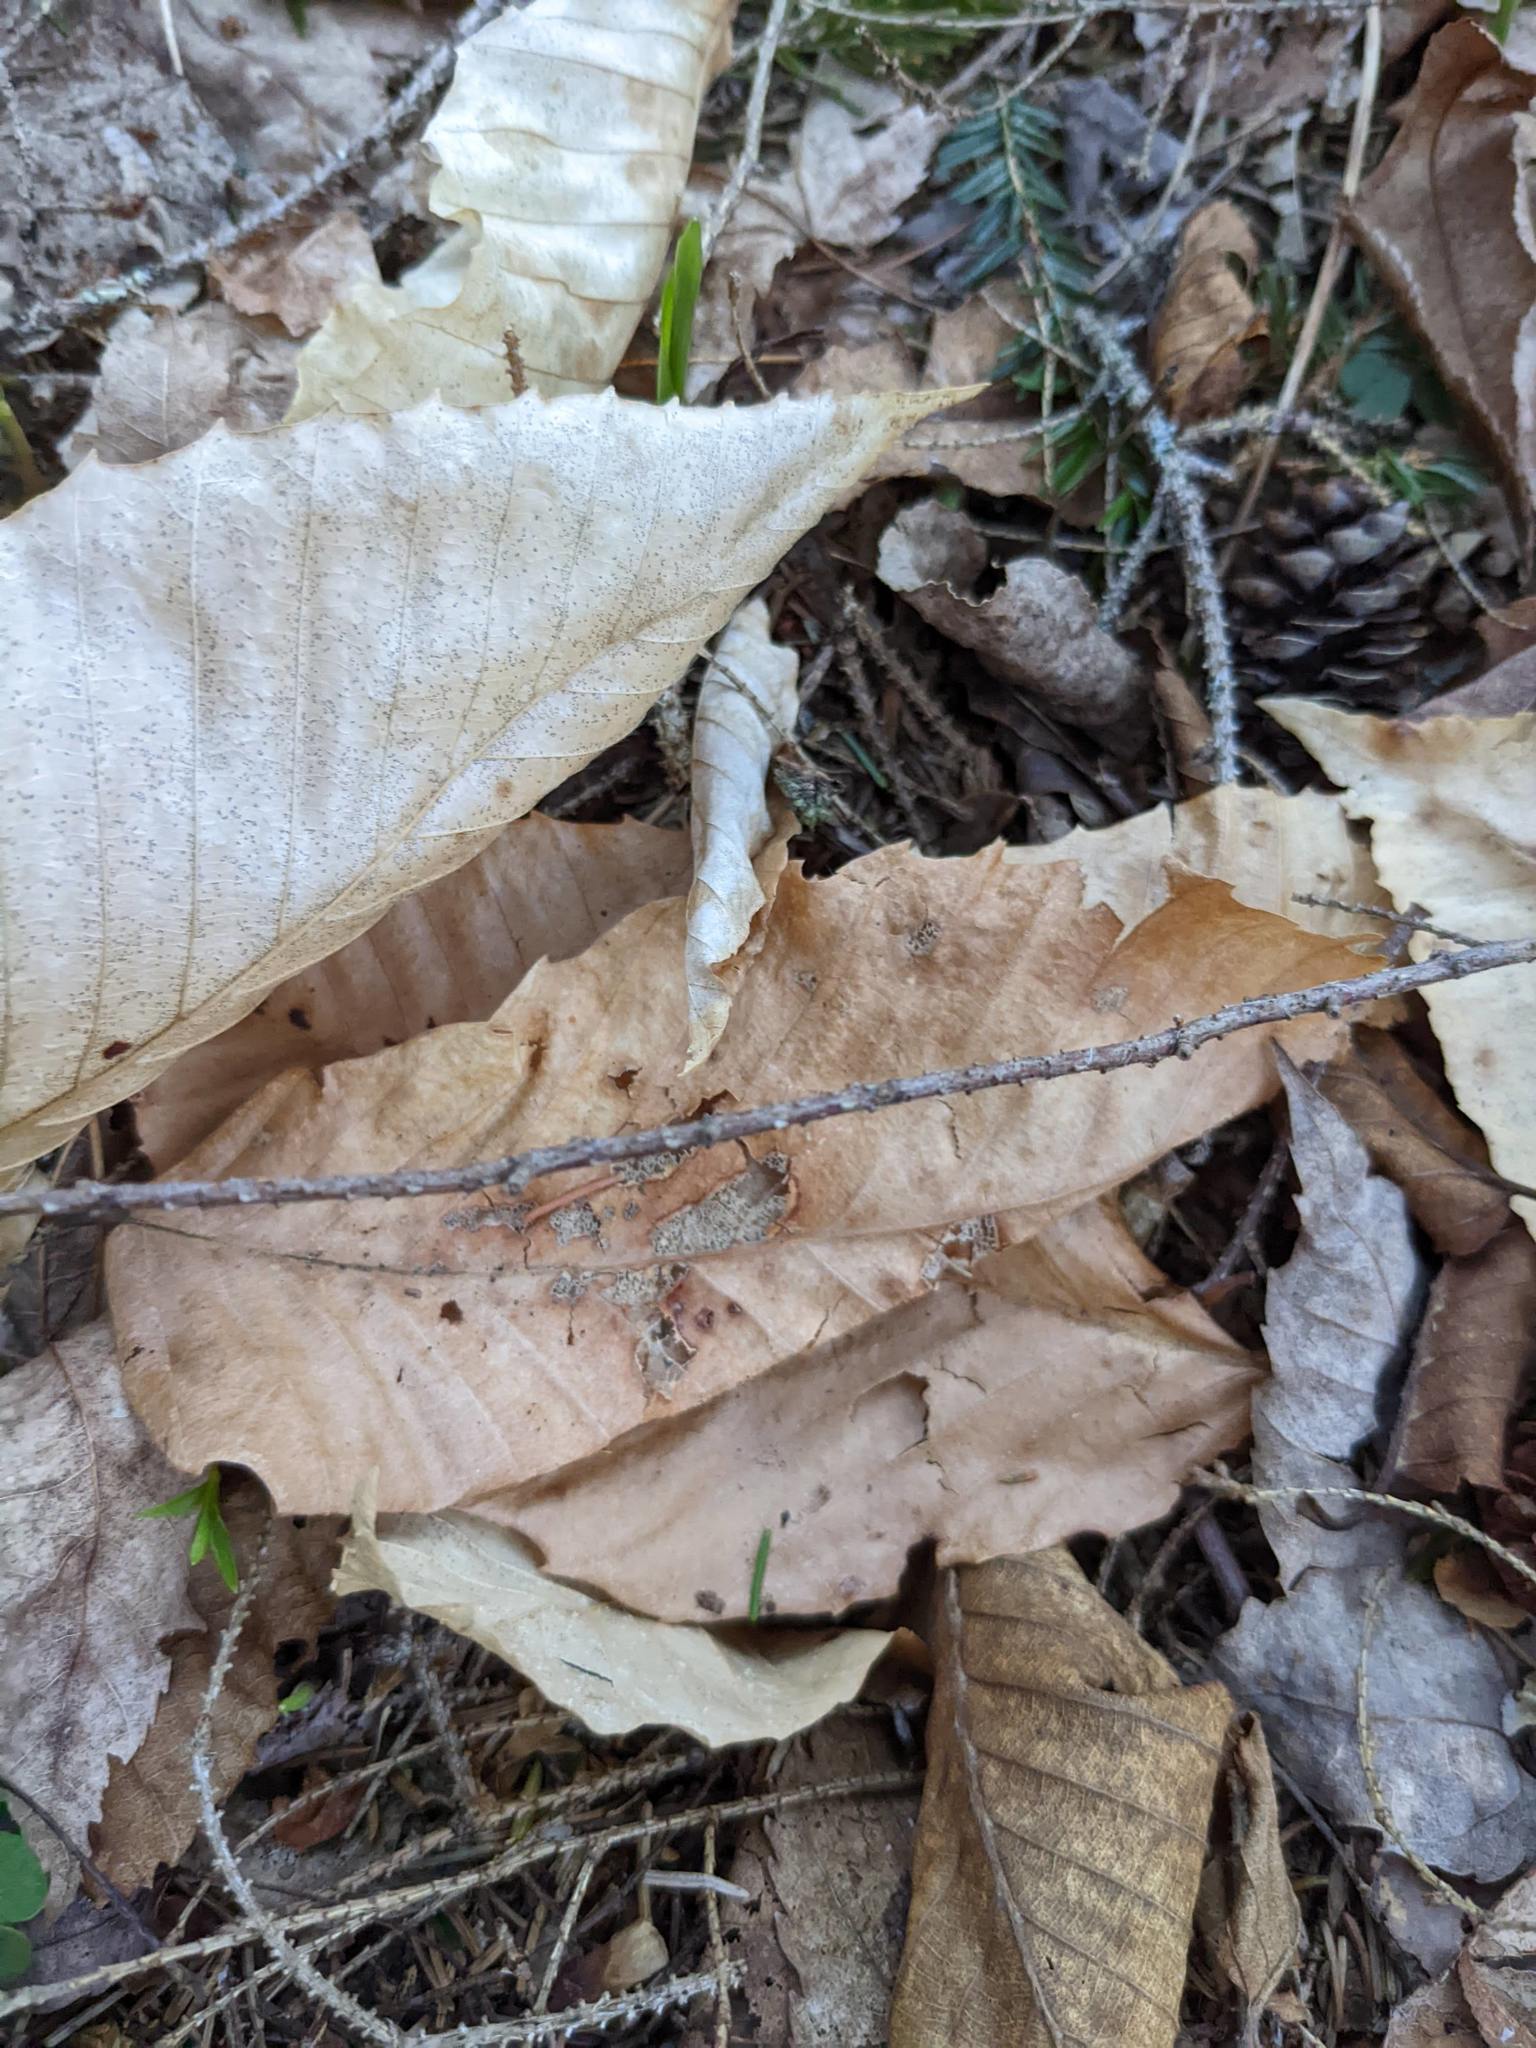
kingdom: Plantae
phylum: Tracheophyta
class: Magnoliopsida
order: Fagales
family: Fagaceae
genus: Fagus
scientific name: Fagus grandifolia
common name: American beech
